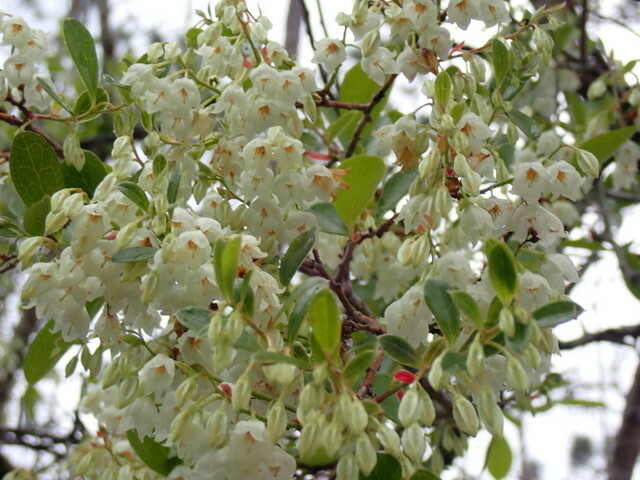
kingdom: Plantae
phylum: Tracheophyta
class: Magnoliopsida
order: Ericales
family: Ericaceae
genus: Vaccinium
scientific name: Vaccinium arboreum
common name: Farkleberry
